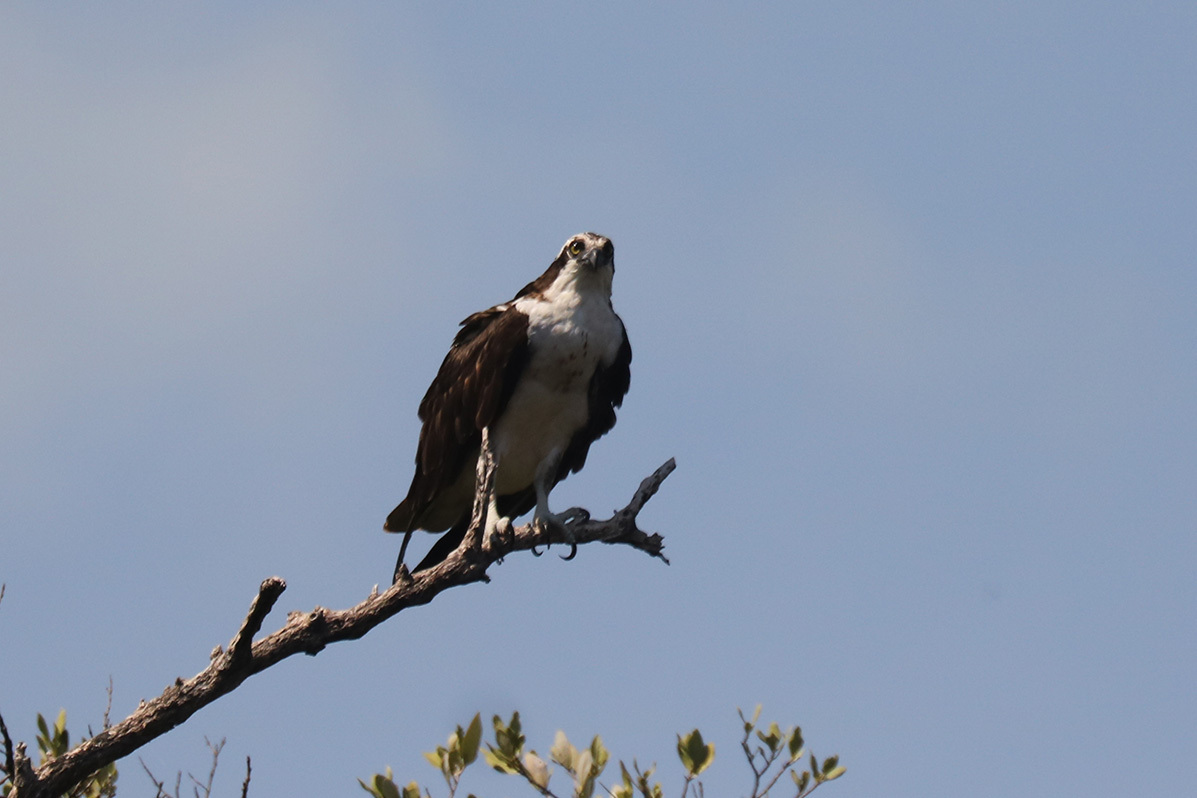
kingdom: Animalia
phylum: Chordata
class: Aves
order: Accipitriformes
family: Pandionidae
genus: Pandion
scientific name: Pandion haliaetus
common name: Osprey
